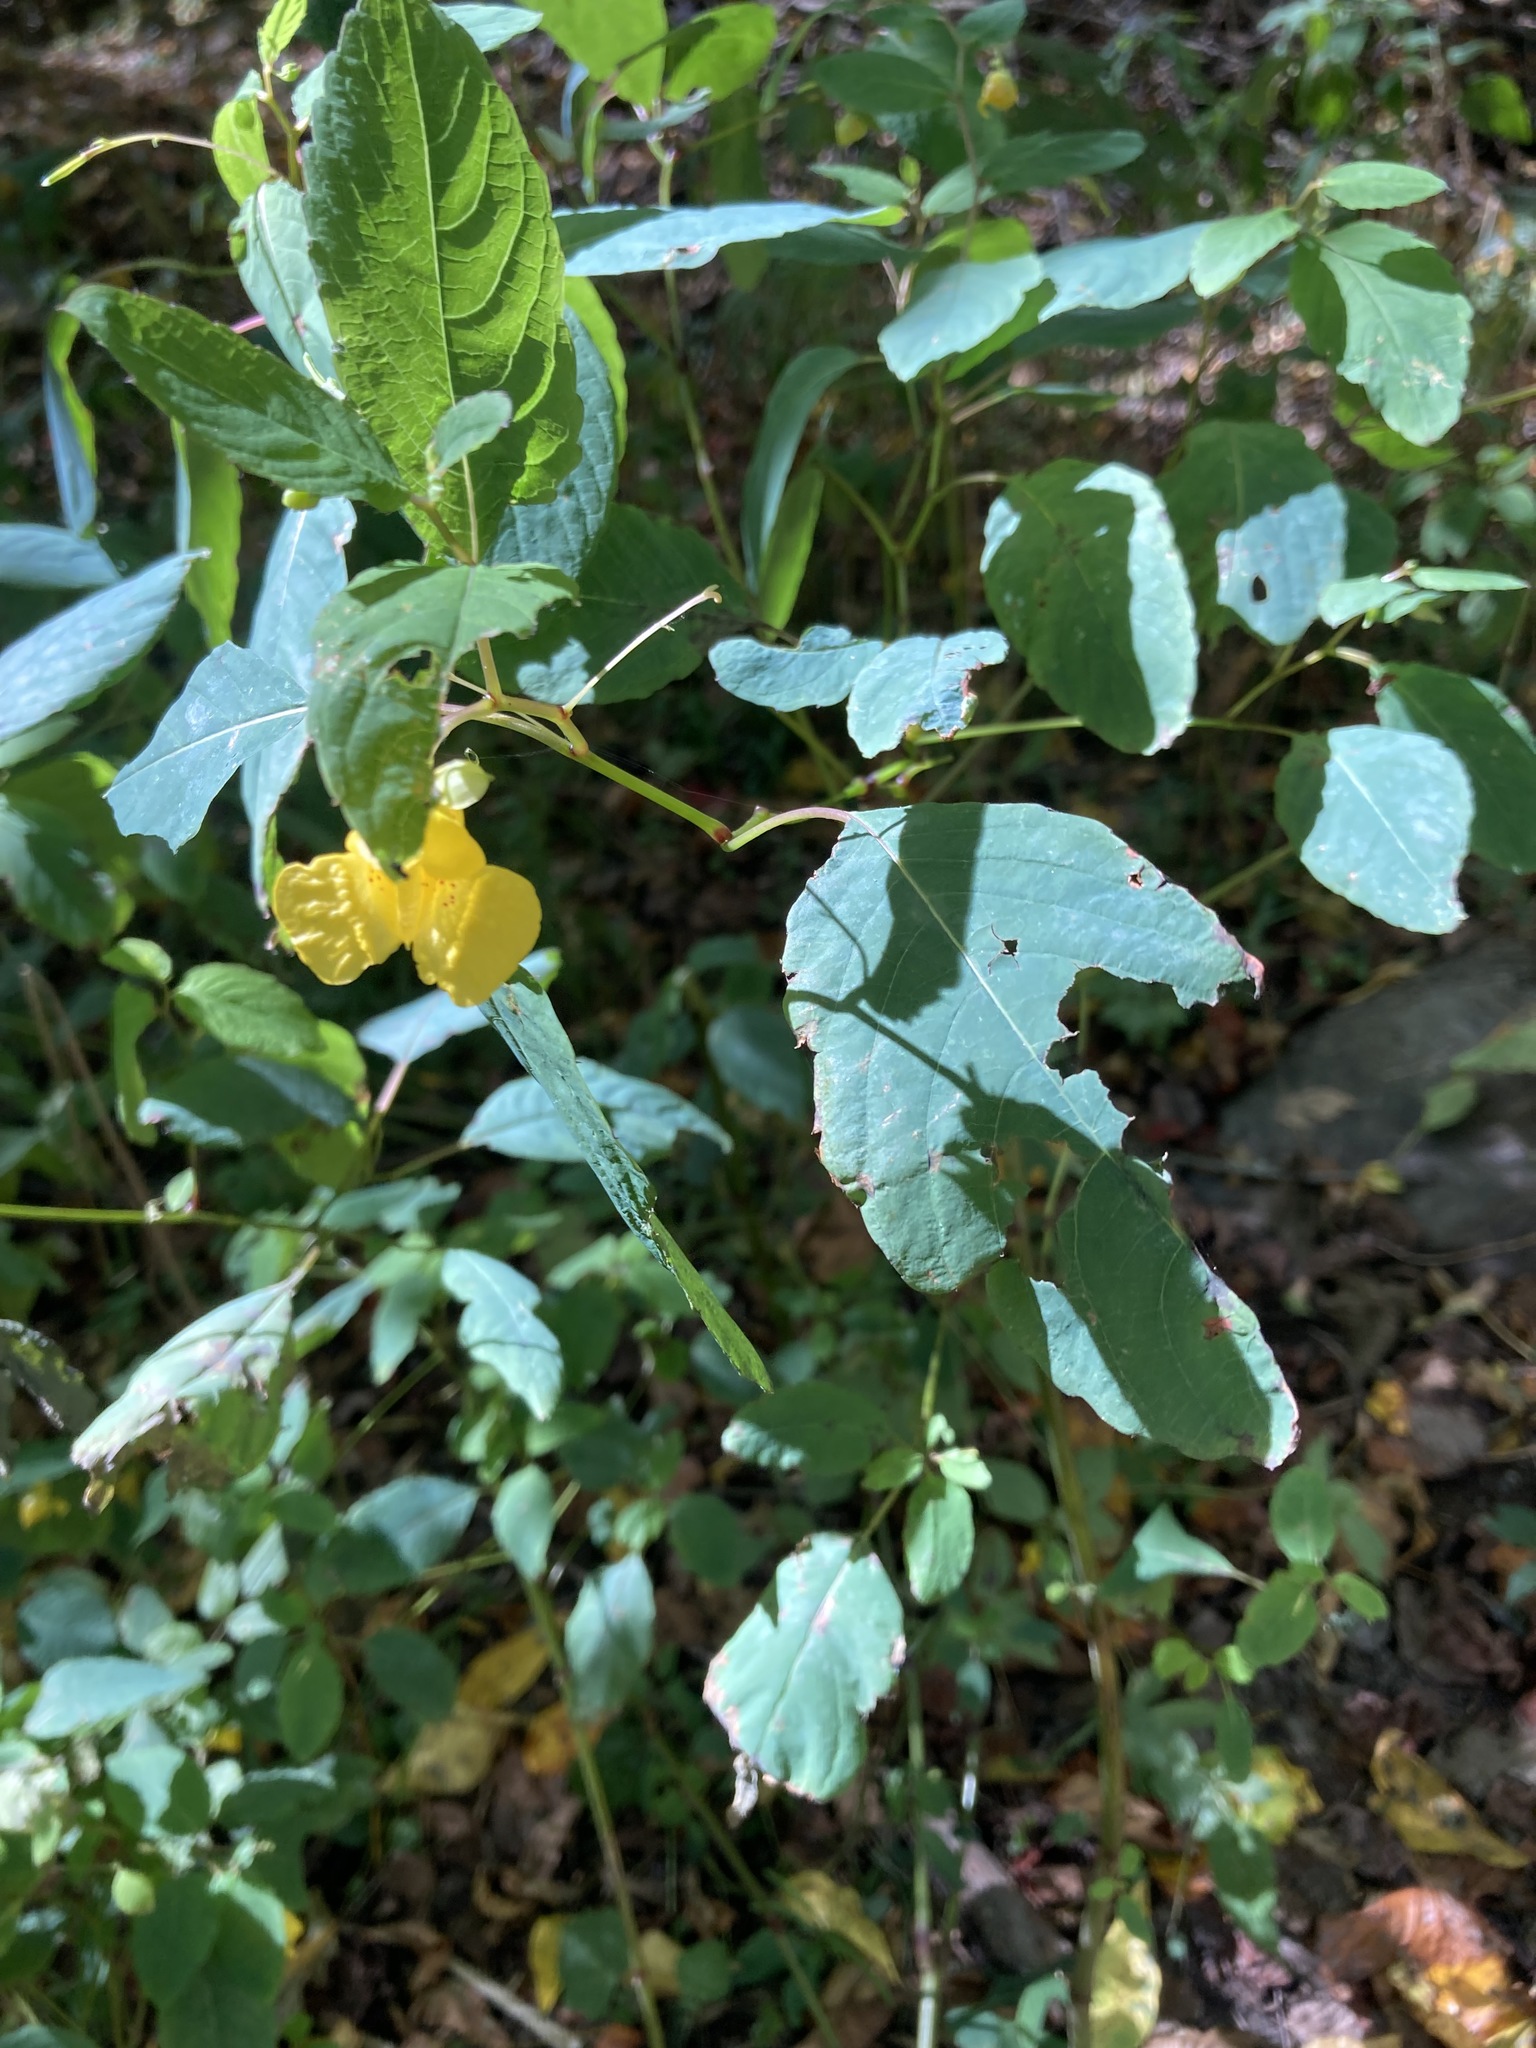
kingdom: Plantae
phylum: Tracheophyta
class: Magnoliopsida
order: Ericales
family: Balsaminaceae
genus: Impatiens
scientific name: Impatiens pallida
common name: Pale snapweed
